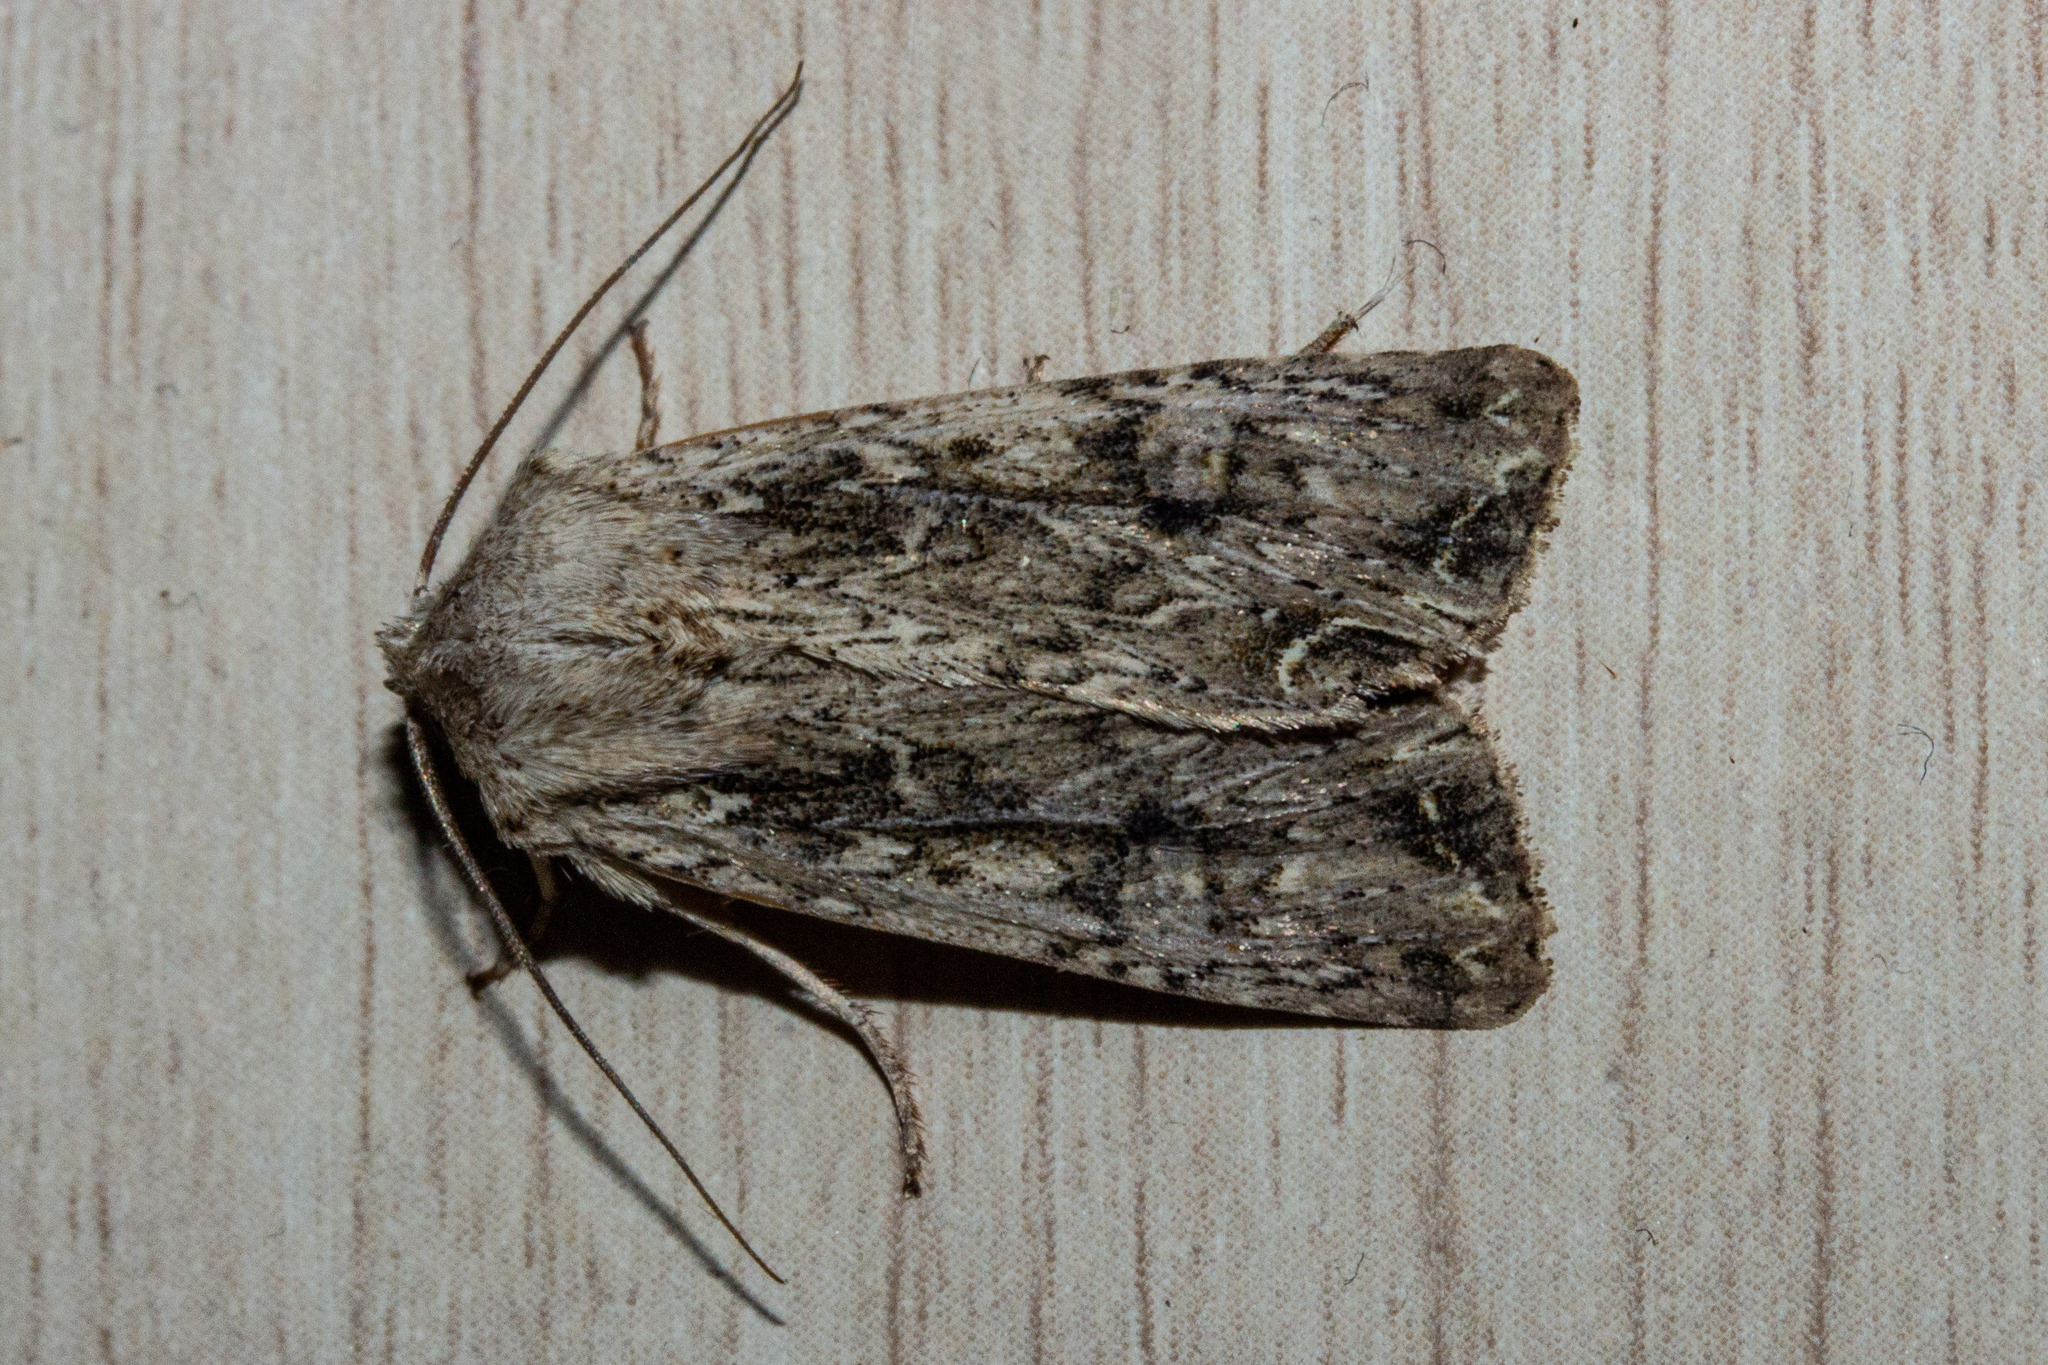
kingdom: Animalia
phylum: Arthropoda
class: Insecta
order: Lepidoptera
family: Noctuidae
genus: Ichneutica
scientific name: Ichneutica lignana
